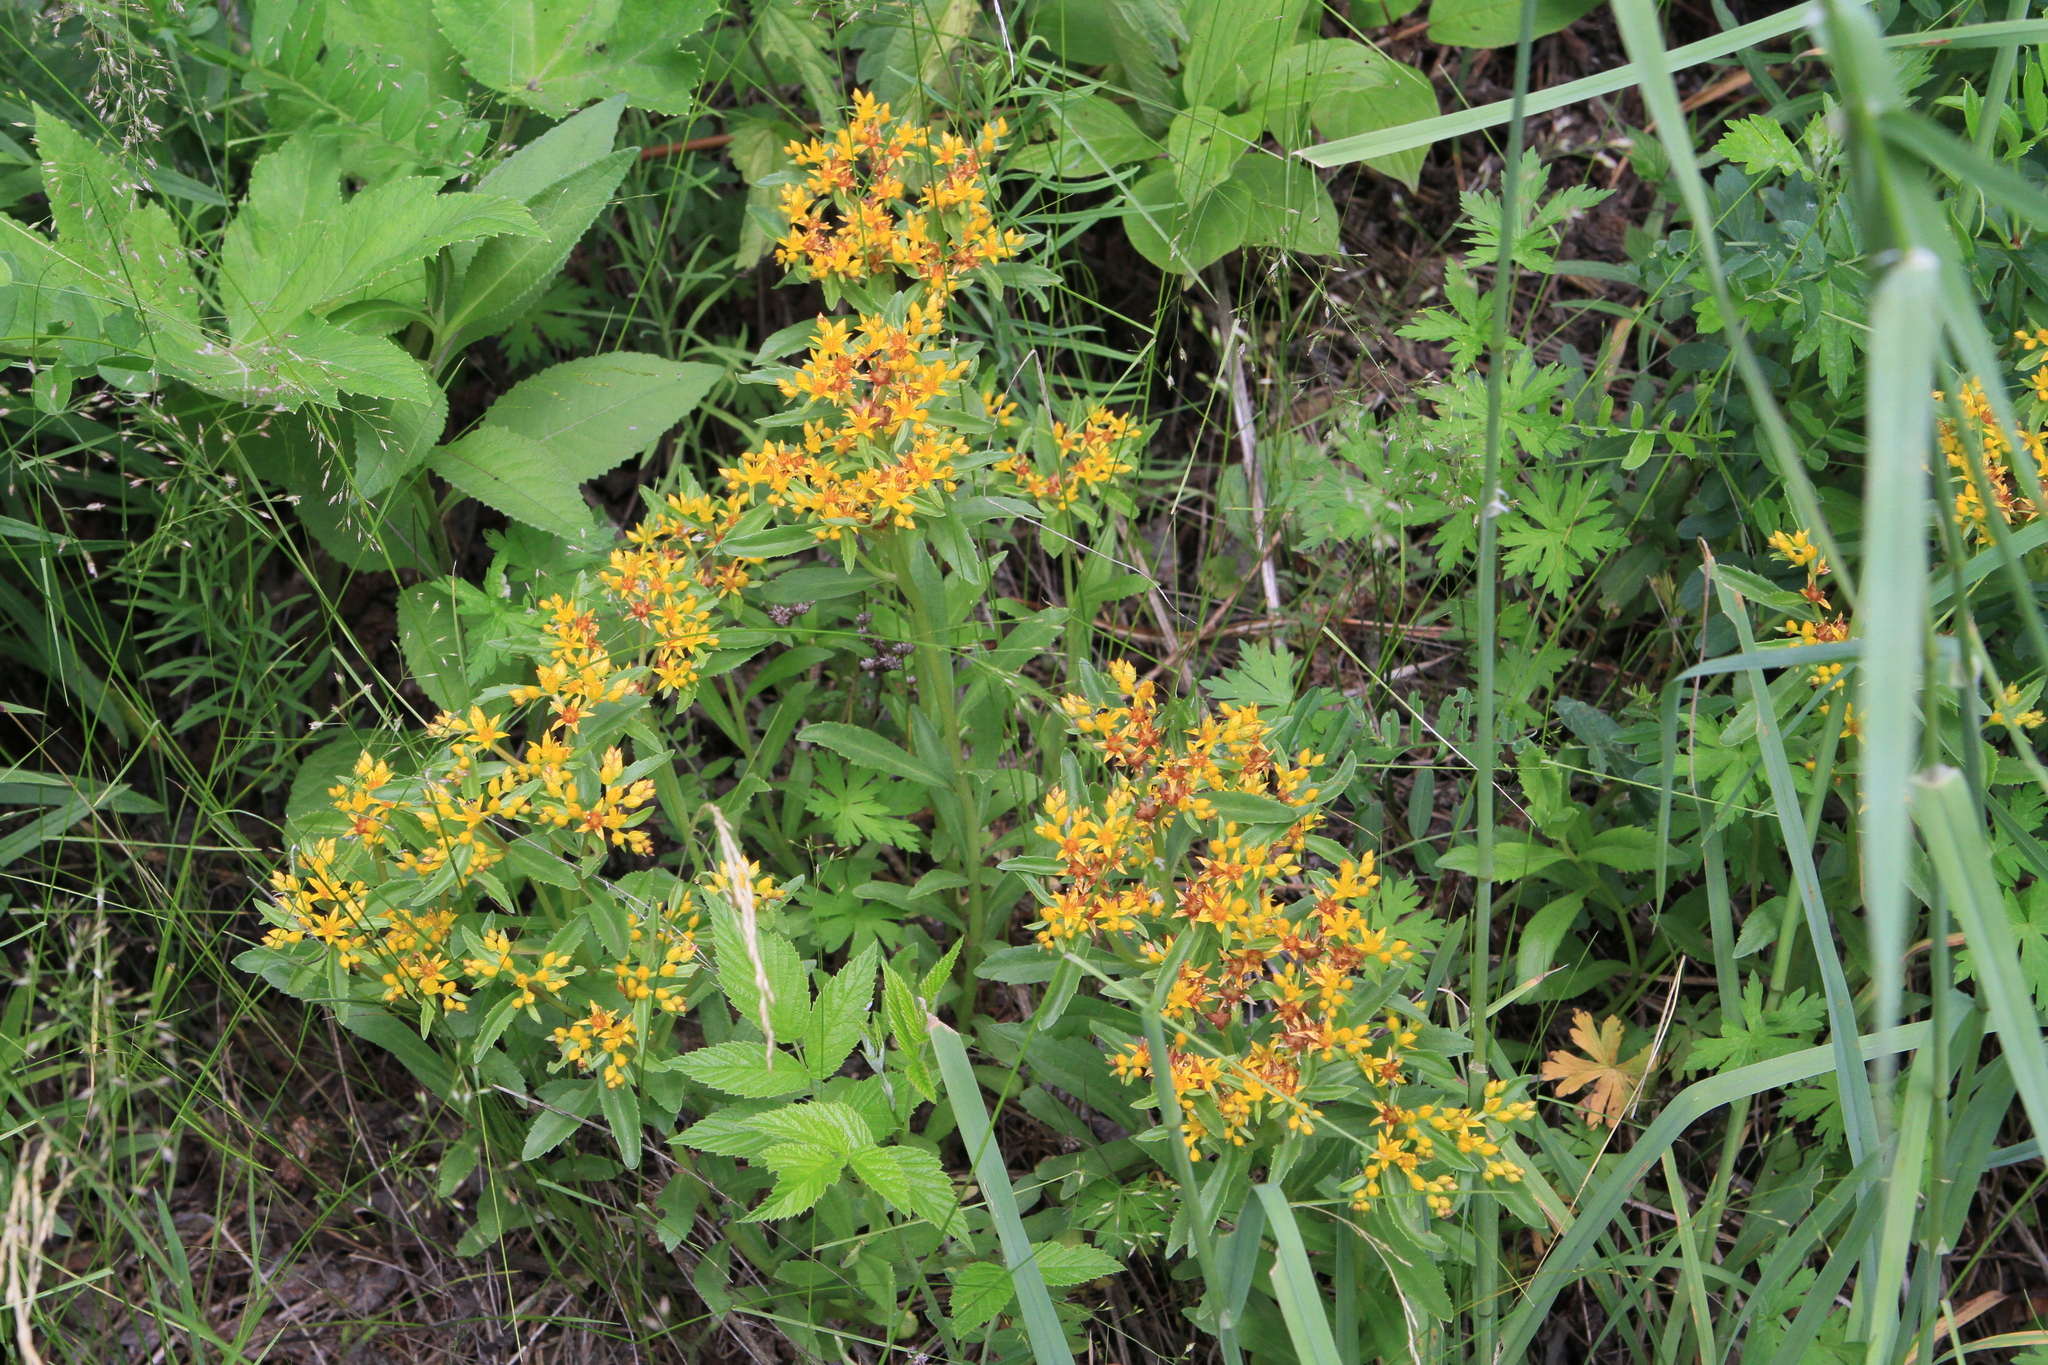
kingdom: Plantae
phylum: Tracheophyta
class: Magnoliopsida
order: Saxifragales
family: Crassulaceae
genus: Phedimus
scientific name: Phedimus aizoon
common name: Orpin aizoon
